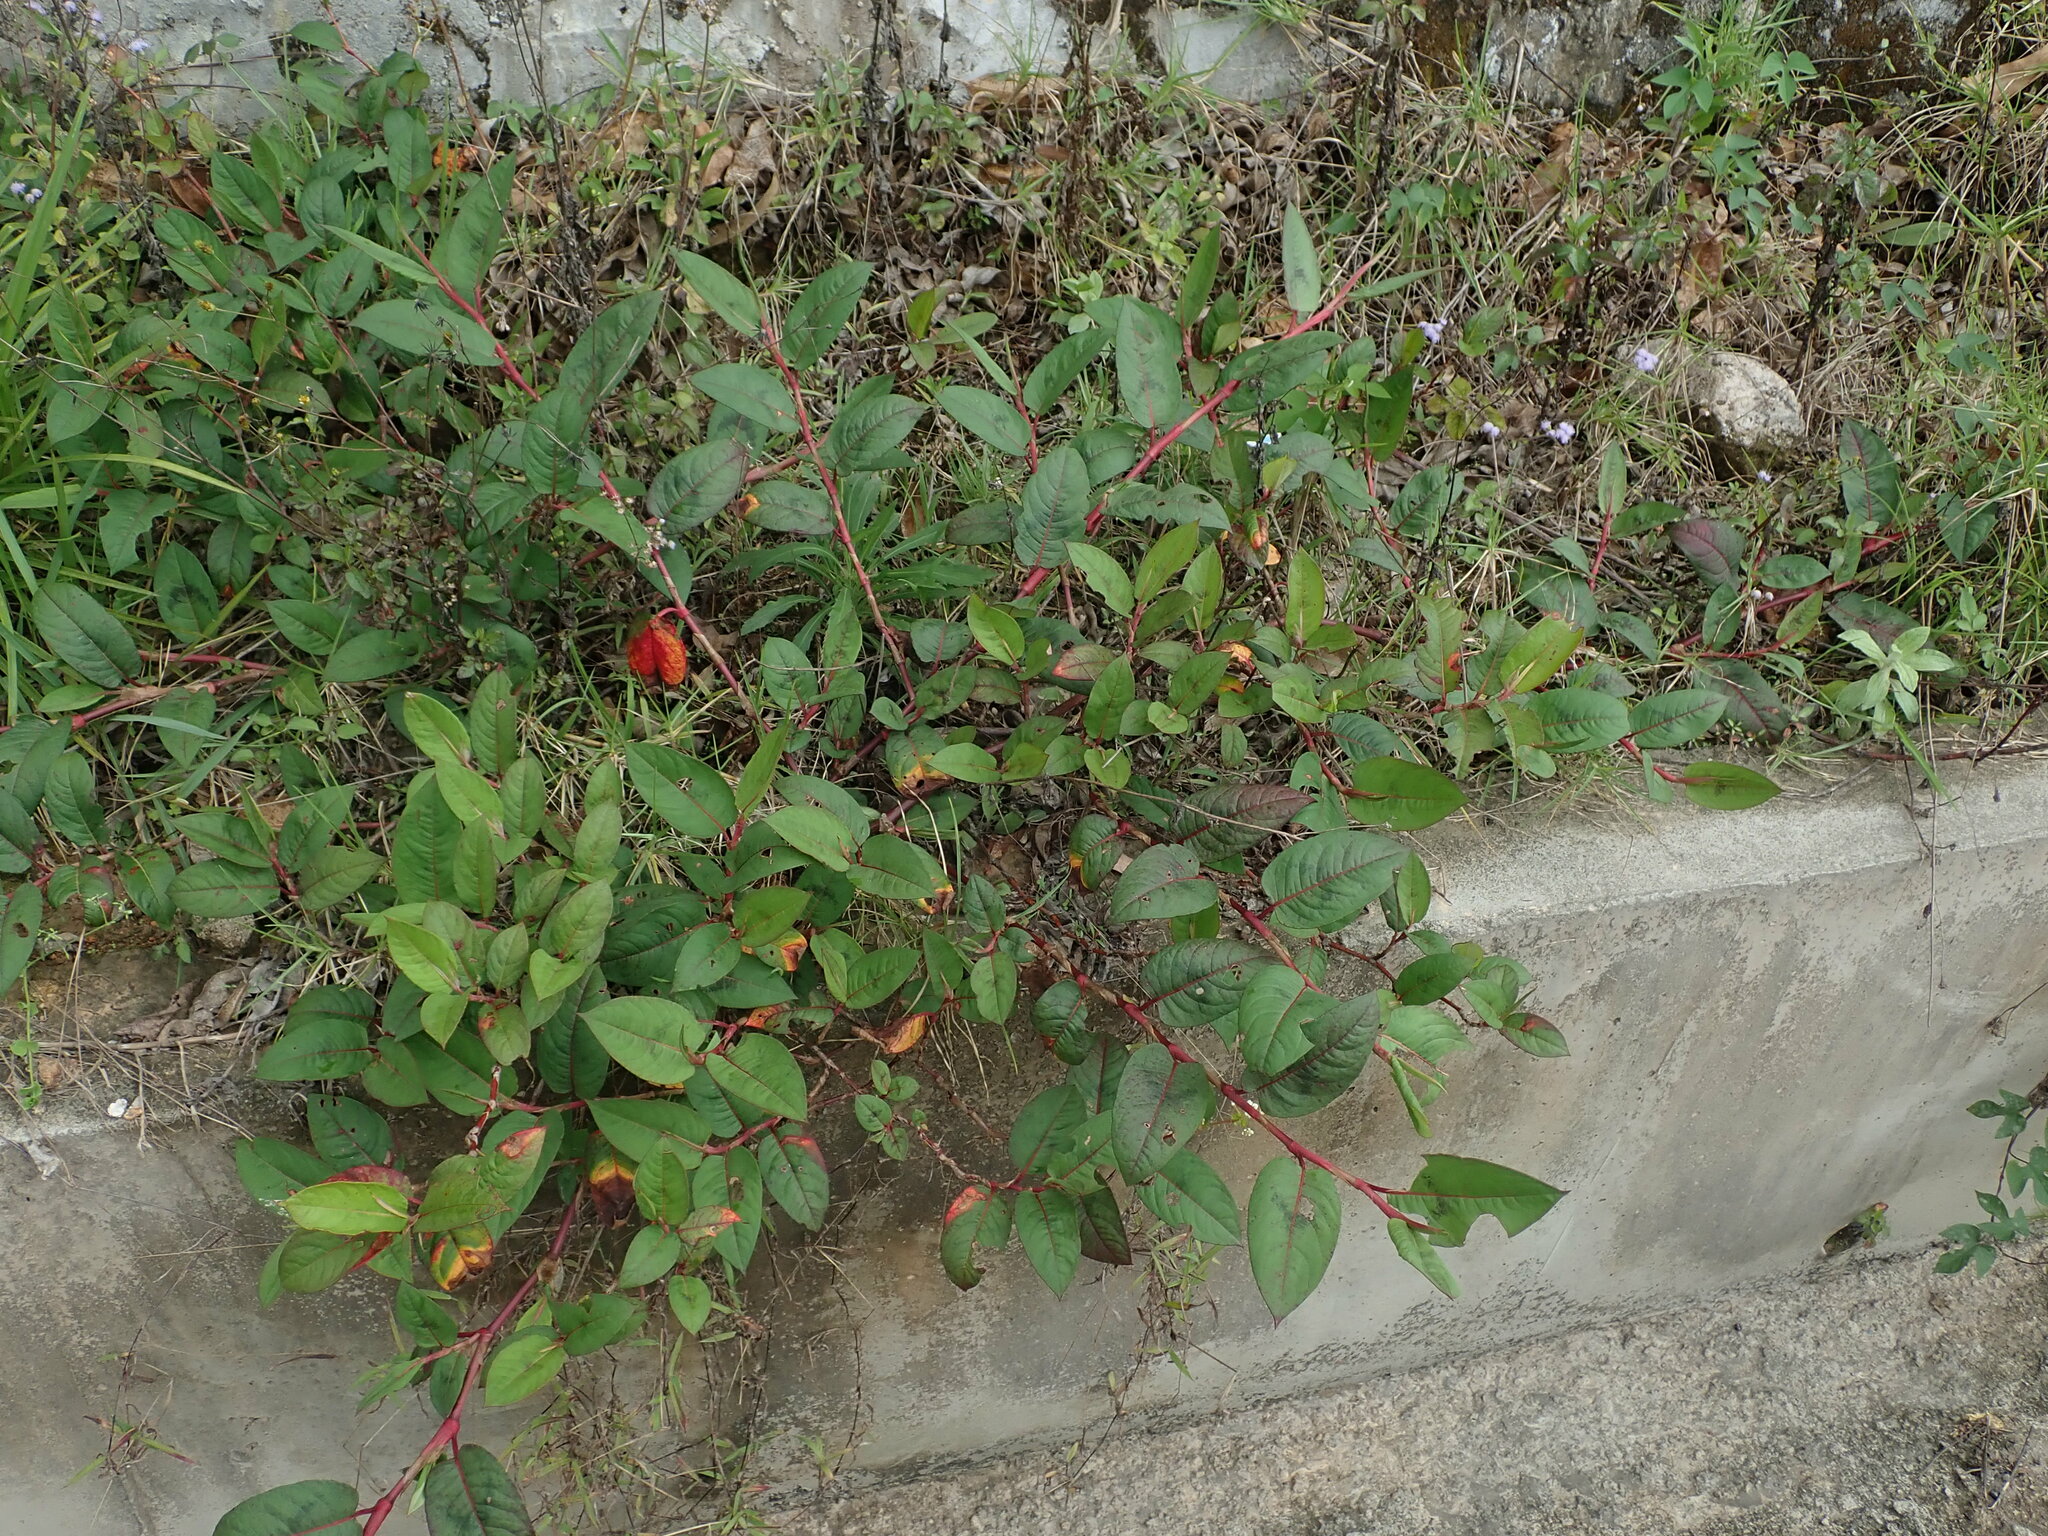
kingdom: Plantae
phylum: Tracheophyta
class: Magnoliopsida
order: Caryophyllales
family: Polygonaceae
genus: Persicaria
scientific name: Persicaria chinensis
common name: Chinese knotweed
